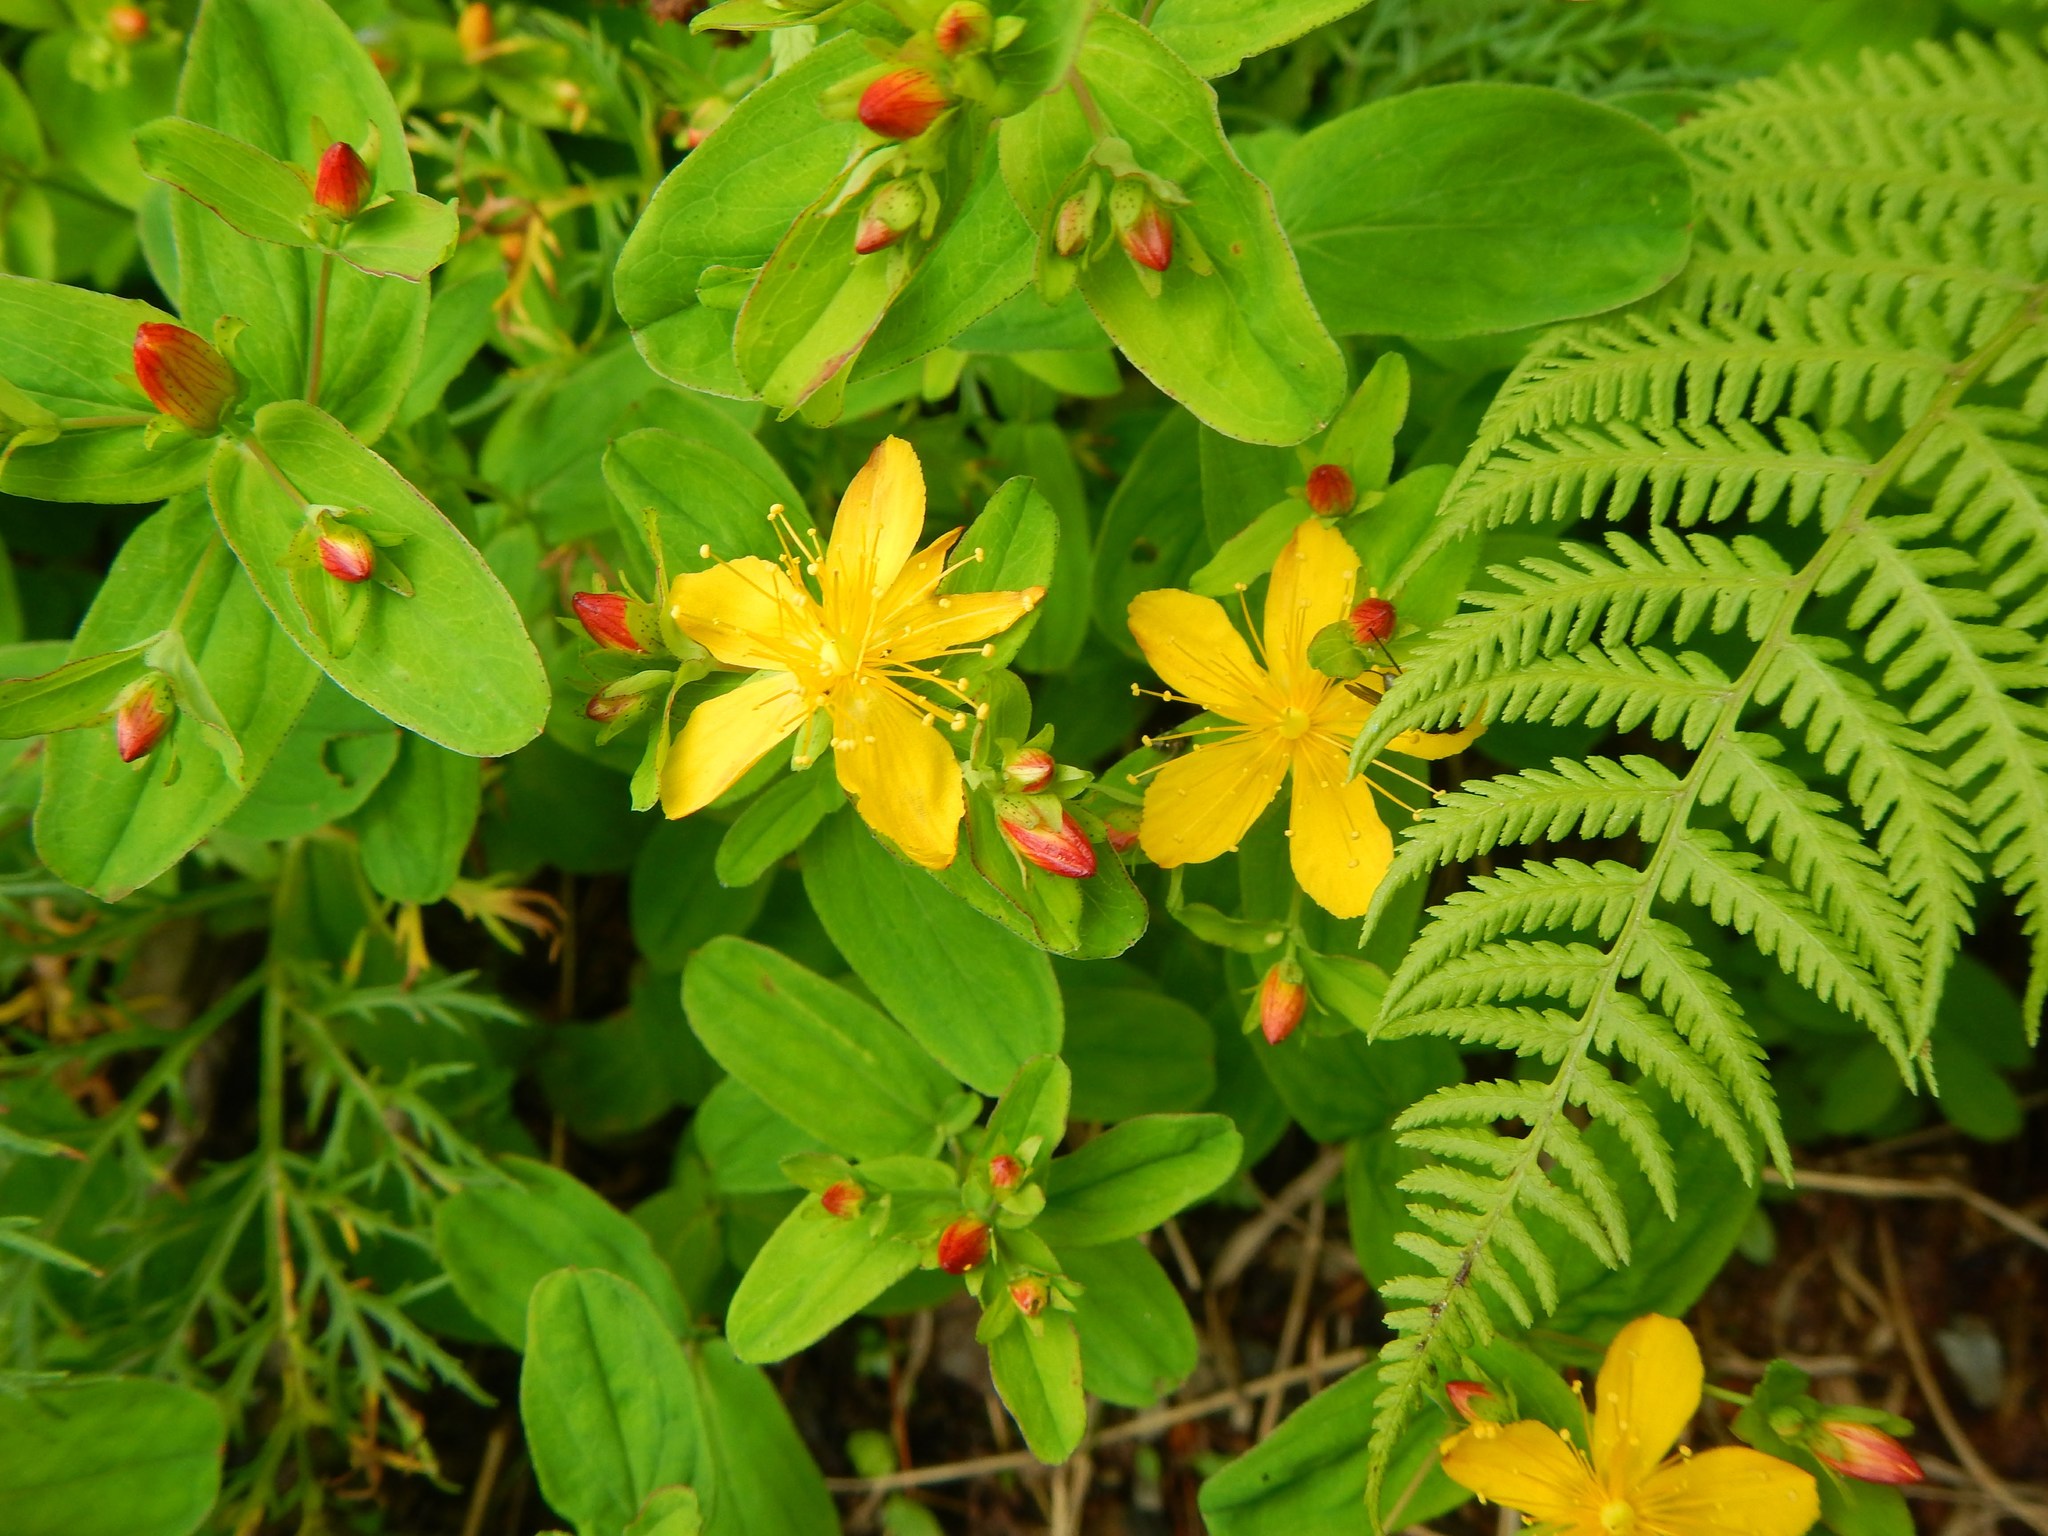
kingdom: Plantae
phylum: Tracheophyta
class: Magnoliopsida
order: Malpighiales
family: Hypericaceae
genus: Hypericum
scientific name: Hypericum senanense
